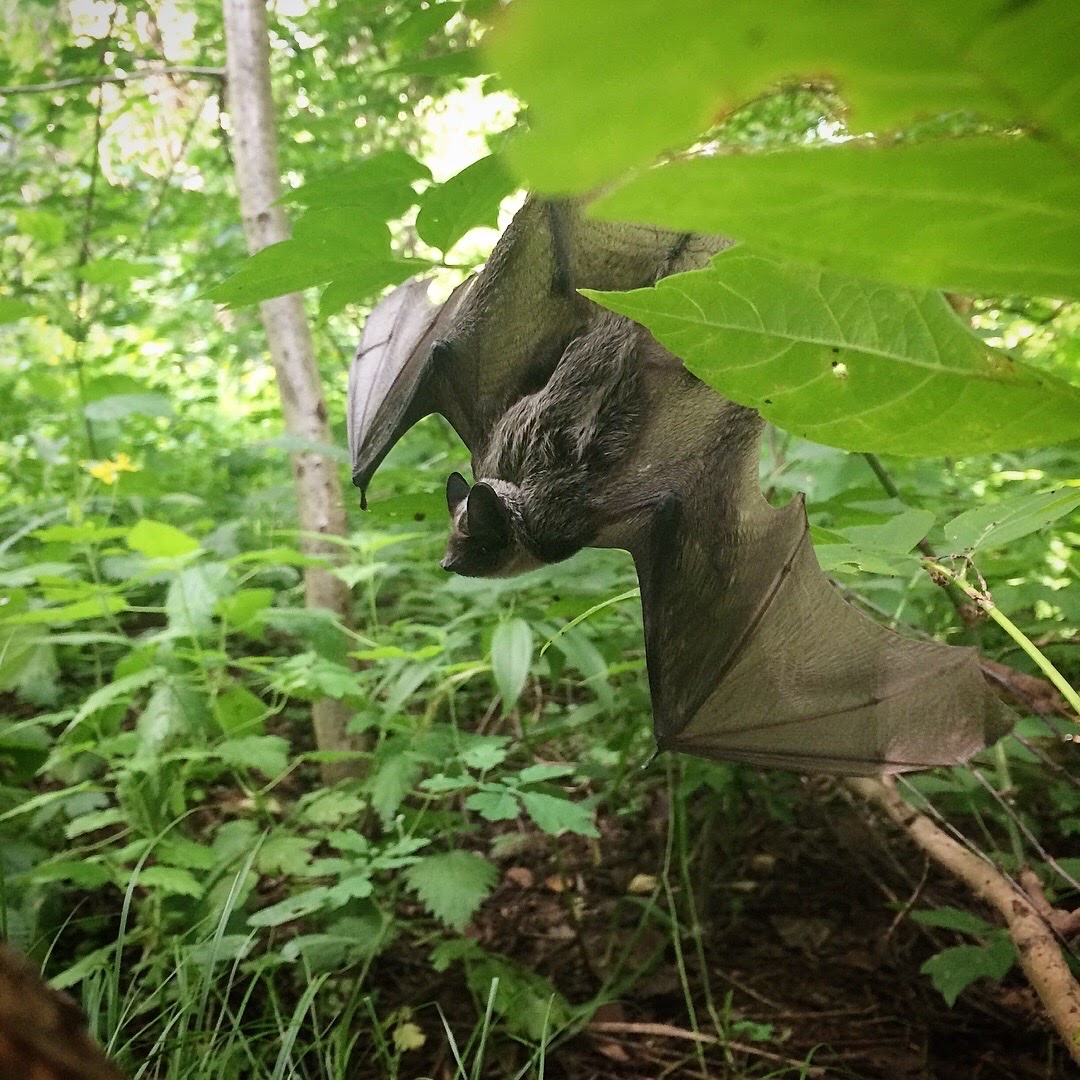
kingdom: Animalia
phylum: Chordata
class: Mammalia
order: Chiroptera
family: Vespertilionidae
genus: Vespertilio
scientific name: Vespertilio murinus
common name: Particolored bat
